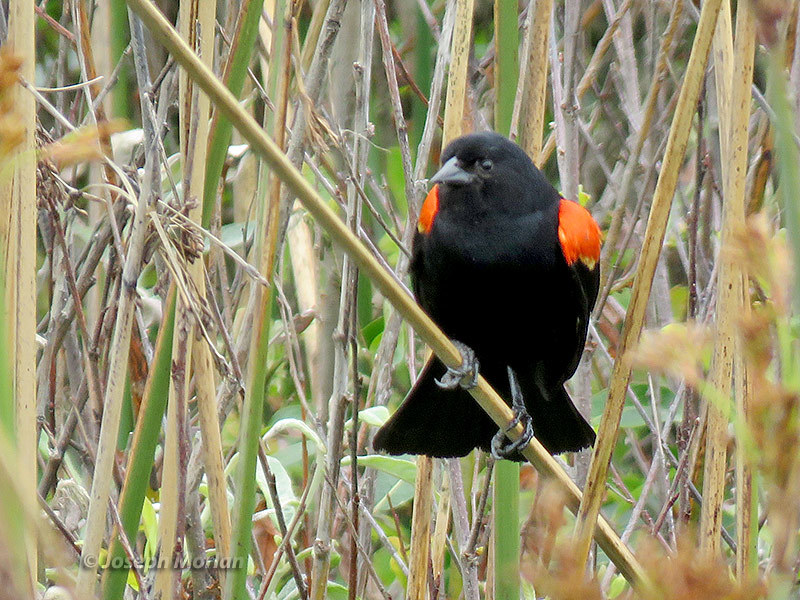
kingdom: Animalia
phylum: Chordata
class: Aves
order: Passeriformes
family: Icteridae
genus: Agelaius
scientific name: Agelaius phoeniceus
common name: Red-winged blackbird
